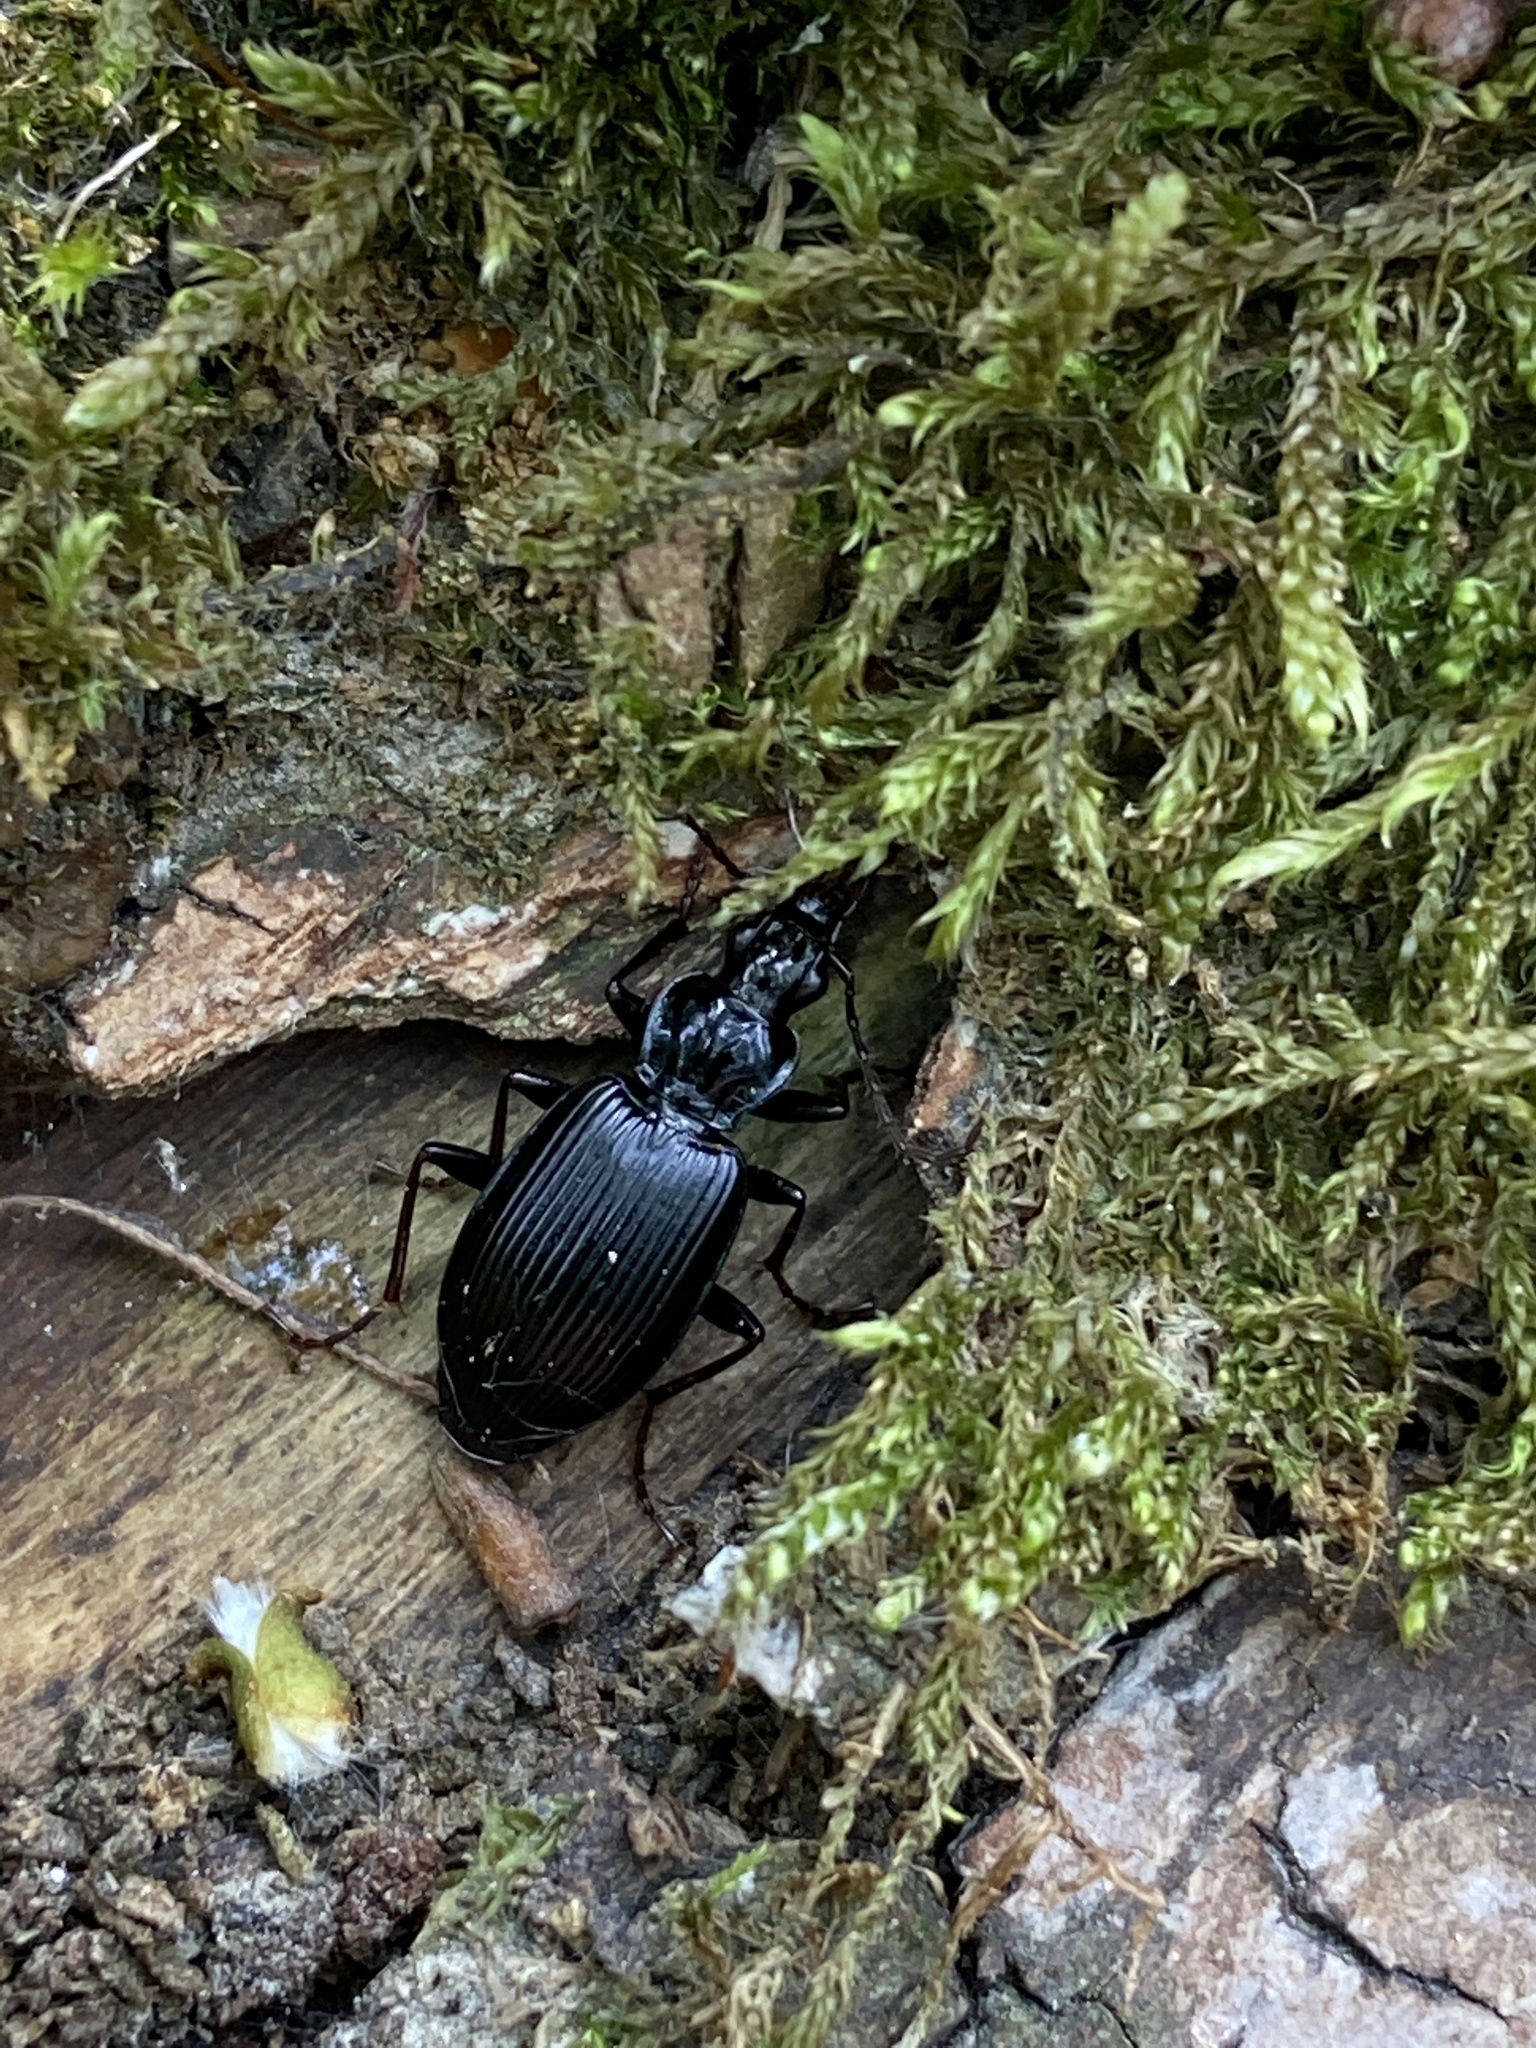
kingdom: Animalia
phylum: Arthropoda
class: Insecta
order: Coleoptera
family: Carabidae
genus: Platynus
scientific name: Platynus assimilis
